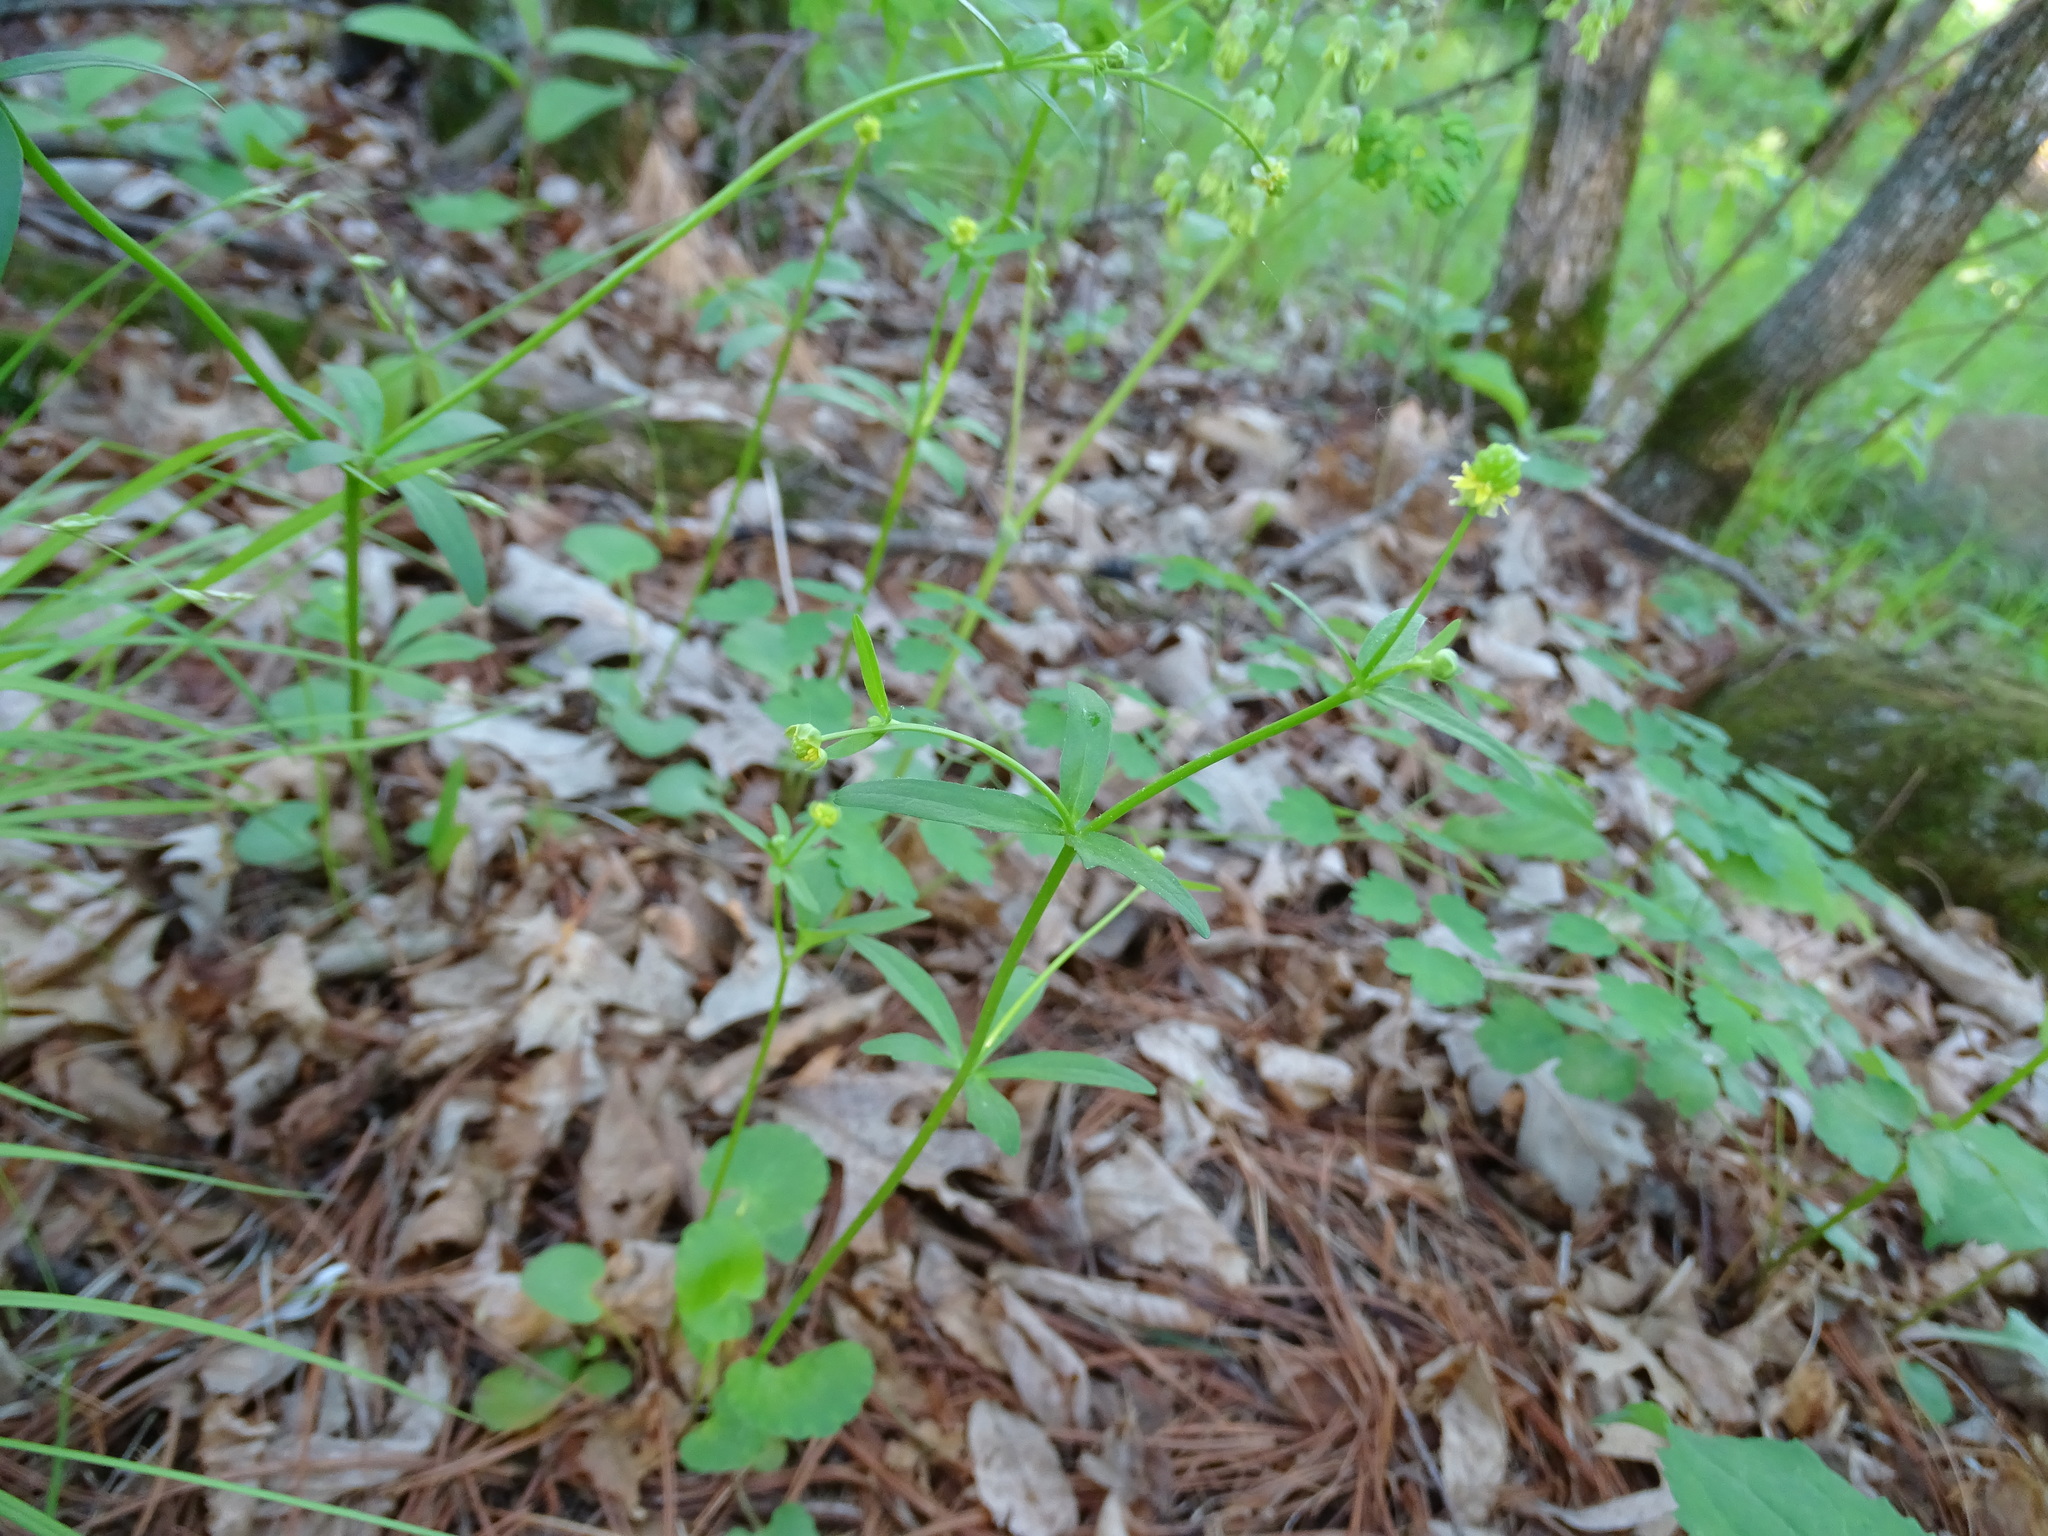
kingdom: Plantae
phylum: Tracheophyta
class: Magnoliopsida
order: Ranunculales
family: Ranunculaceae
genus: Ranunculus
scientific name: Ranunculus abortivus
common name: Early wood buttercup
